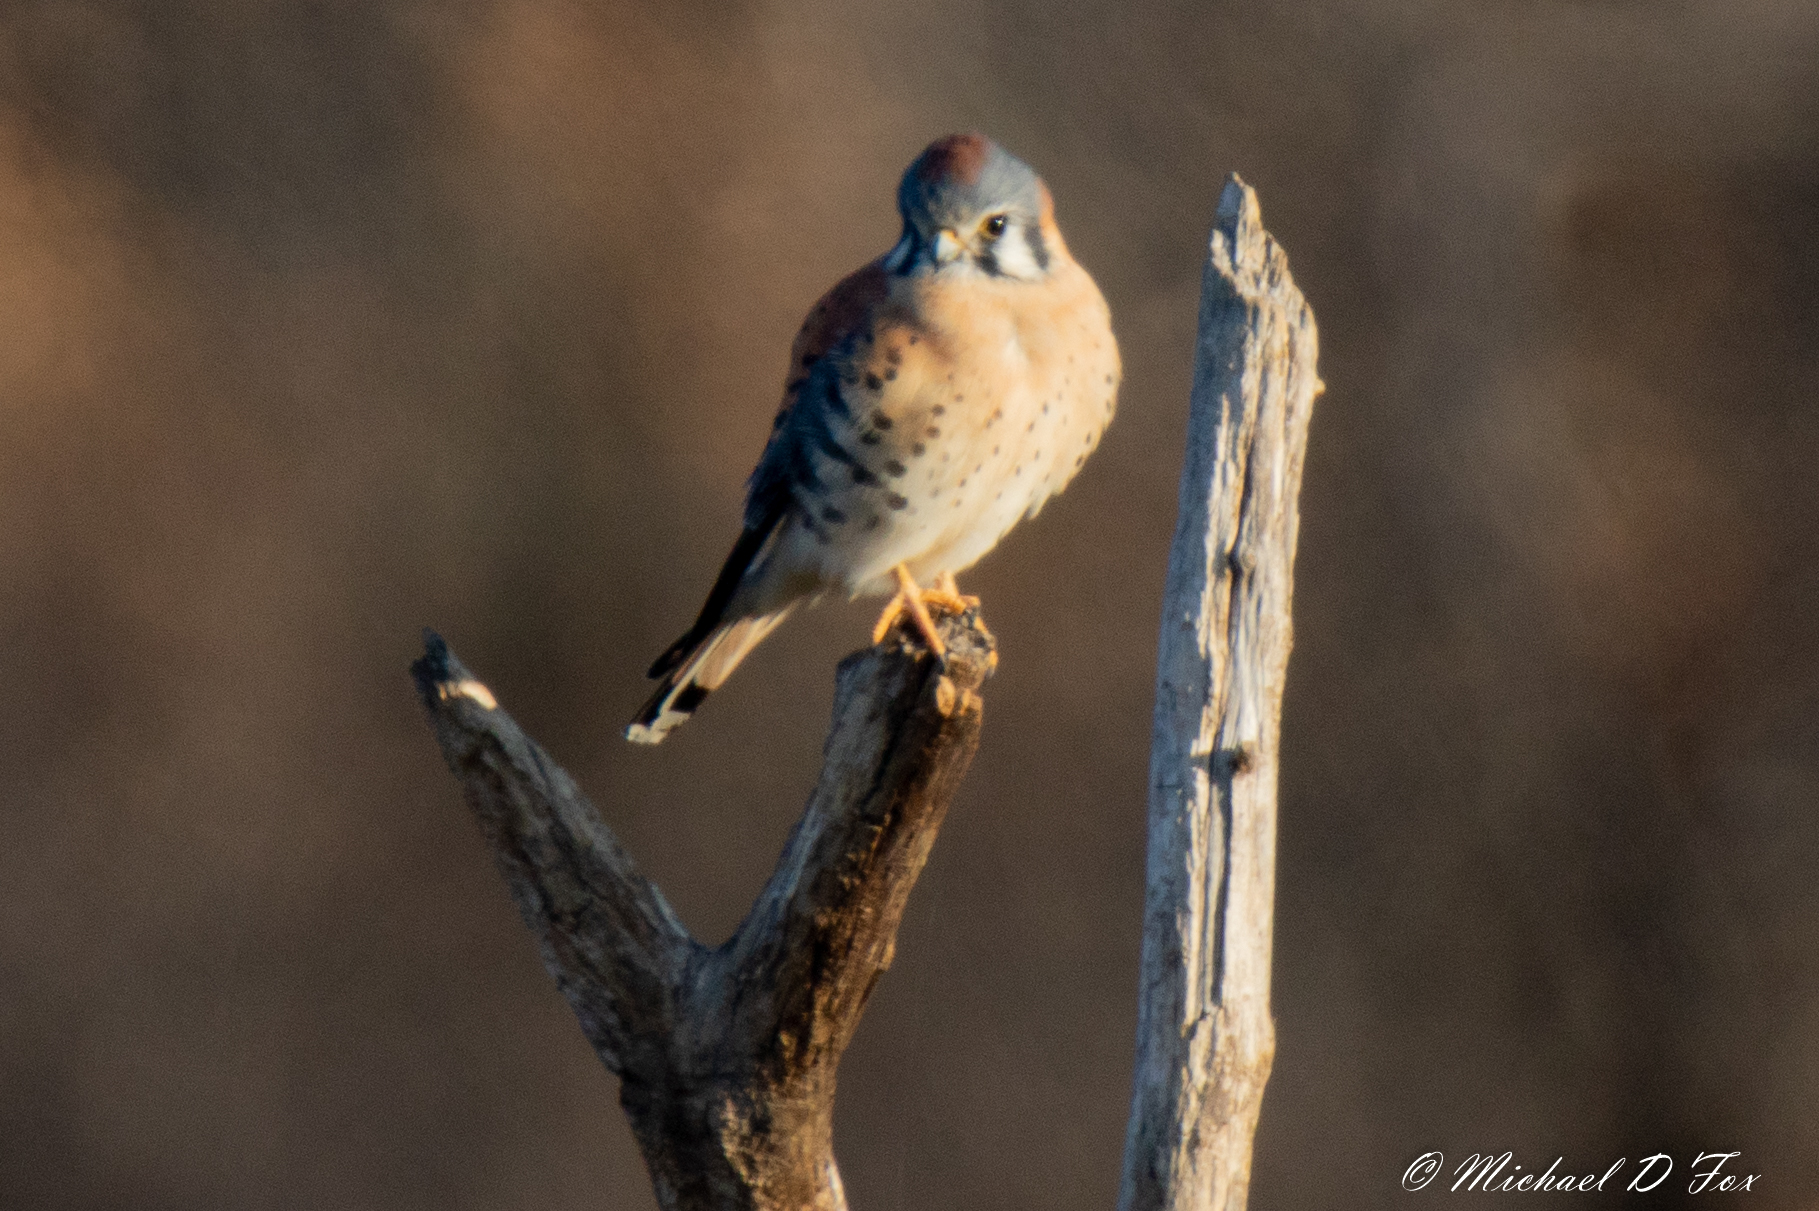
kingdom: Animalia
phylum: Chordata
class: Aves
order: Falconiformes
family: Falconidae
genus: Falco
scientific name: Falco sparverius
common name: American kestrel
